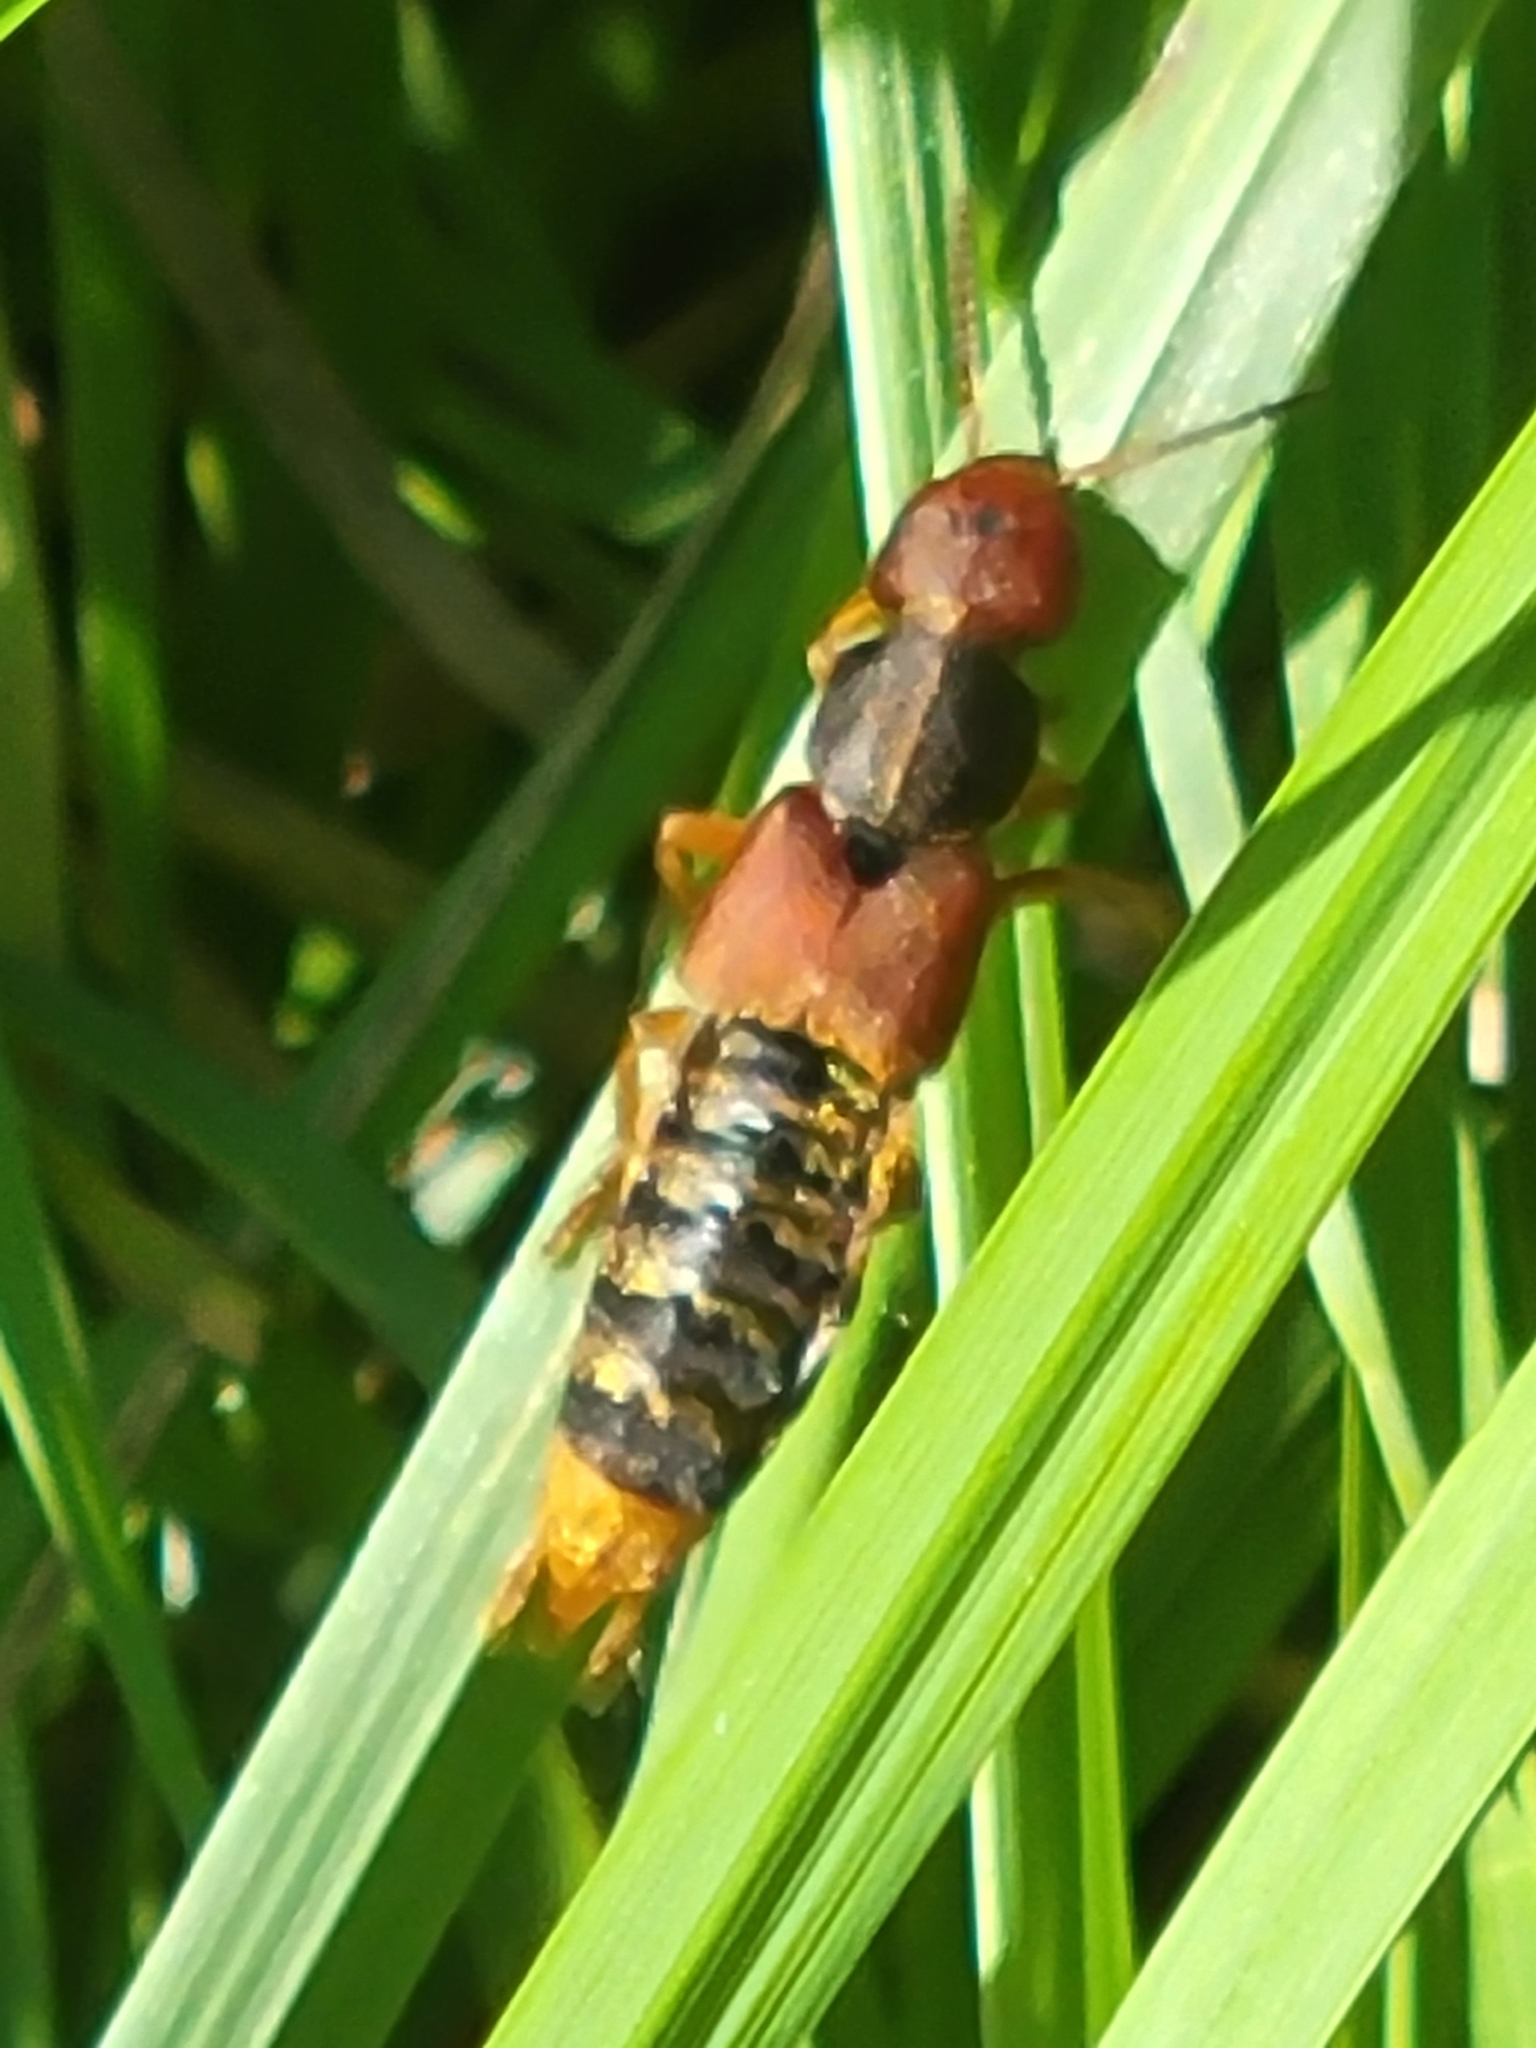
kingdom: Animalia
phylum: Arthropoda
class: Insecta
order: Coleoptera
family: Staphylinidae
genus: Platydracus
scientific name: Platydracus immaculatus
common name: Immaculate rove beetle
